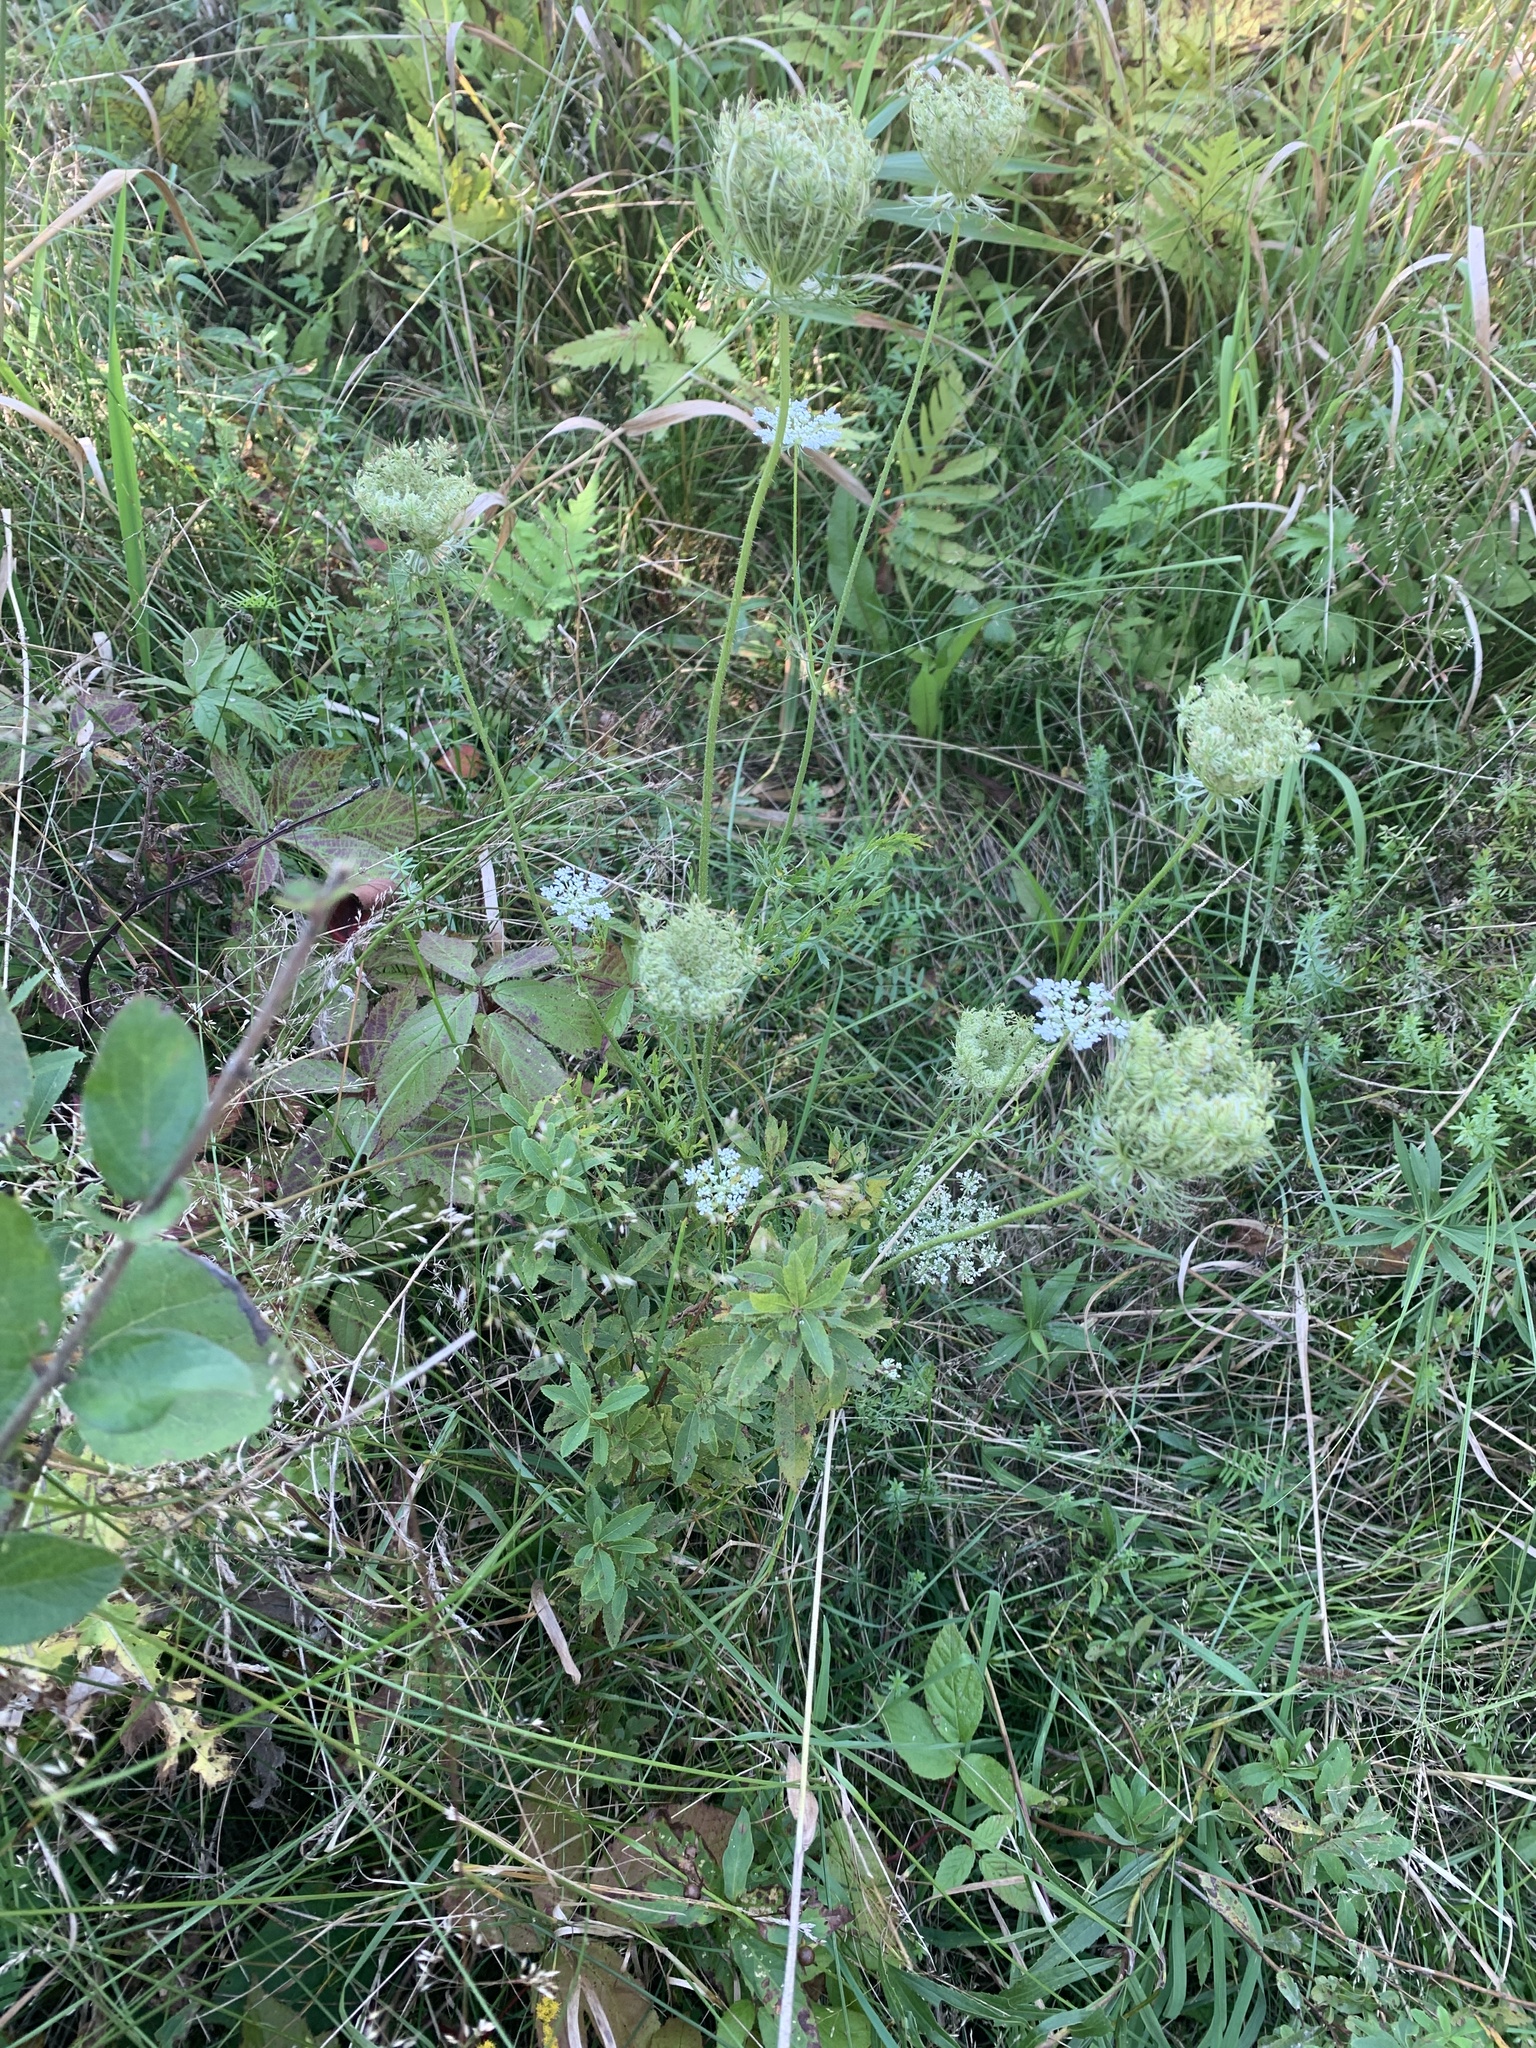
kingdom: Plantae
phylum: Tracheophyta
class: Magnoliopsida
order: Apiales
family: Apiaceae
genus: Daucus
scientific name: Daucus carota
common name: Wild carrot
